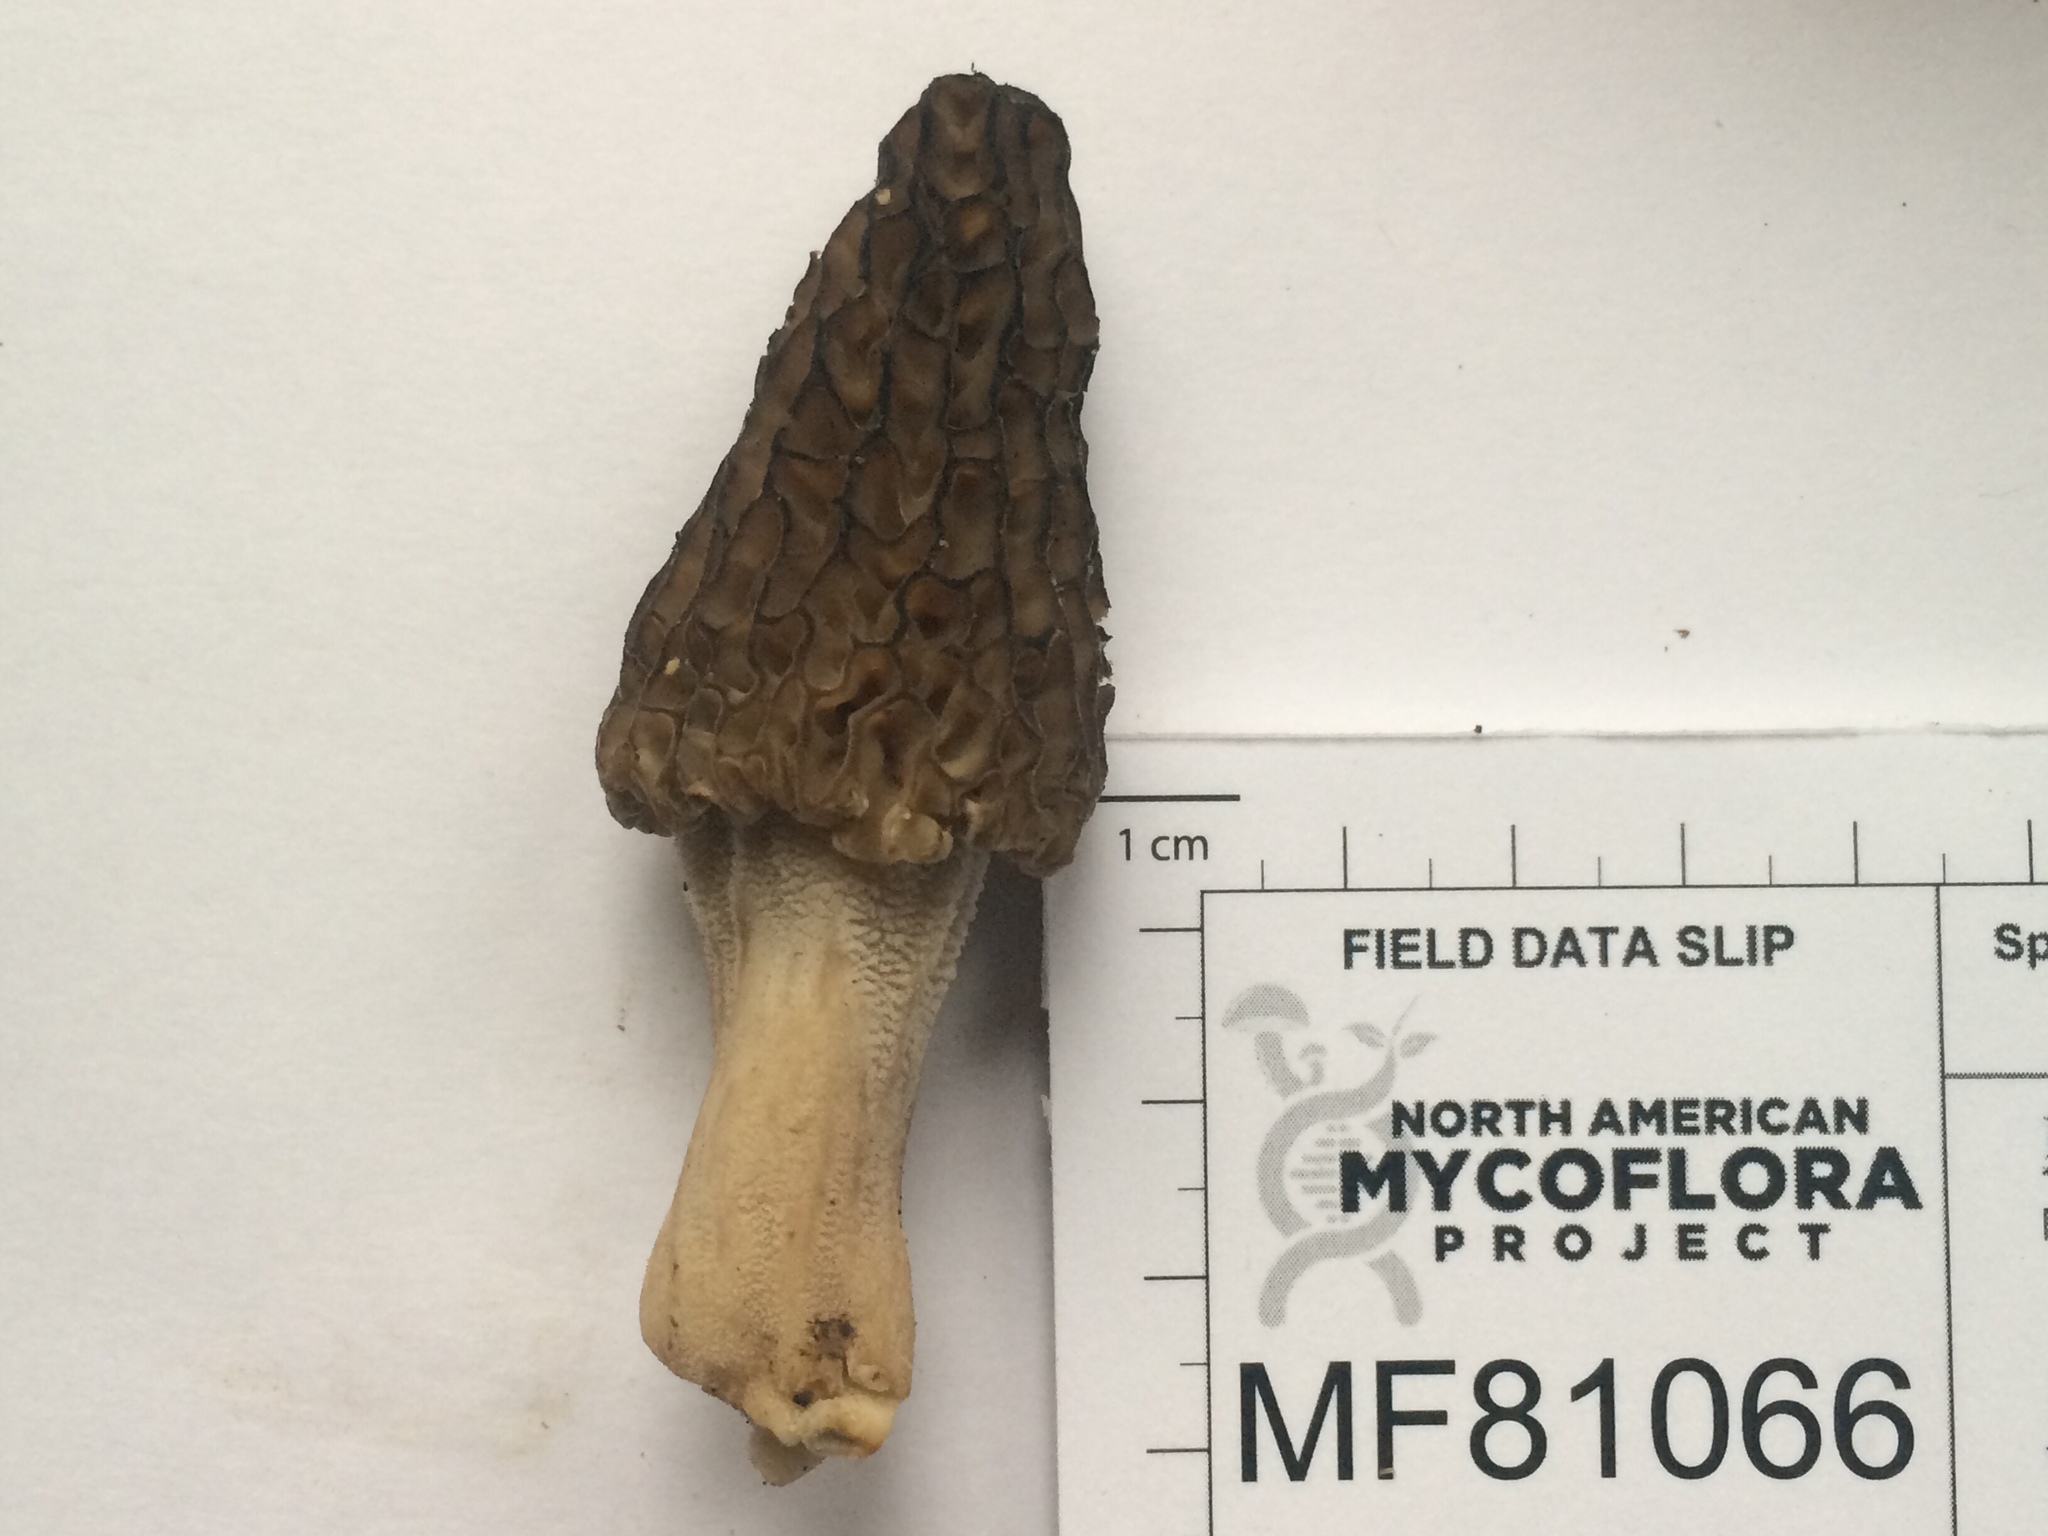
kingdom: Fungi
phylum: Ascomycota
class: Pezizomycetes
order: Pezizales
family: Morchellaceae
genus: Morchella
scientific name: Morchella angusticeps
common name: Black morel
